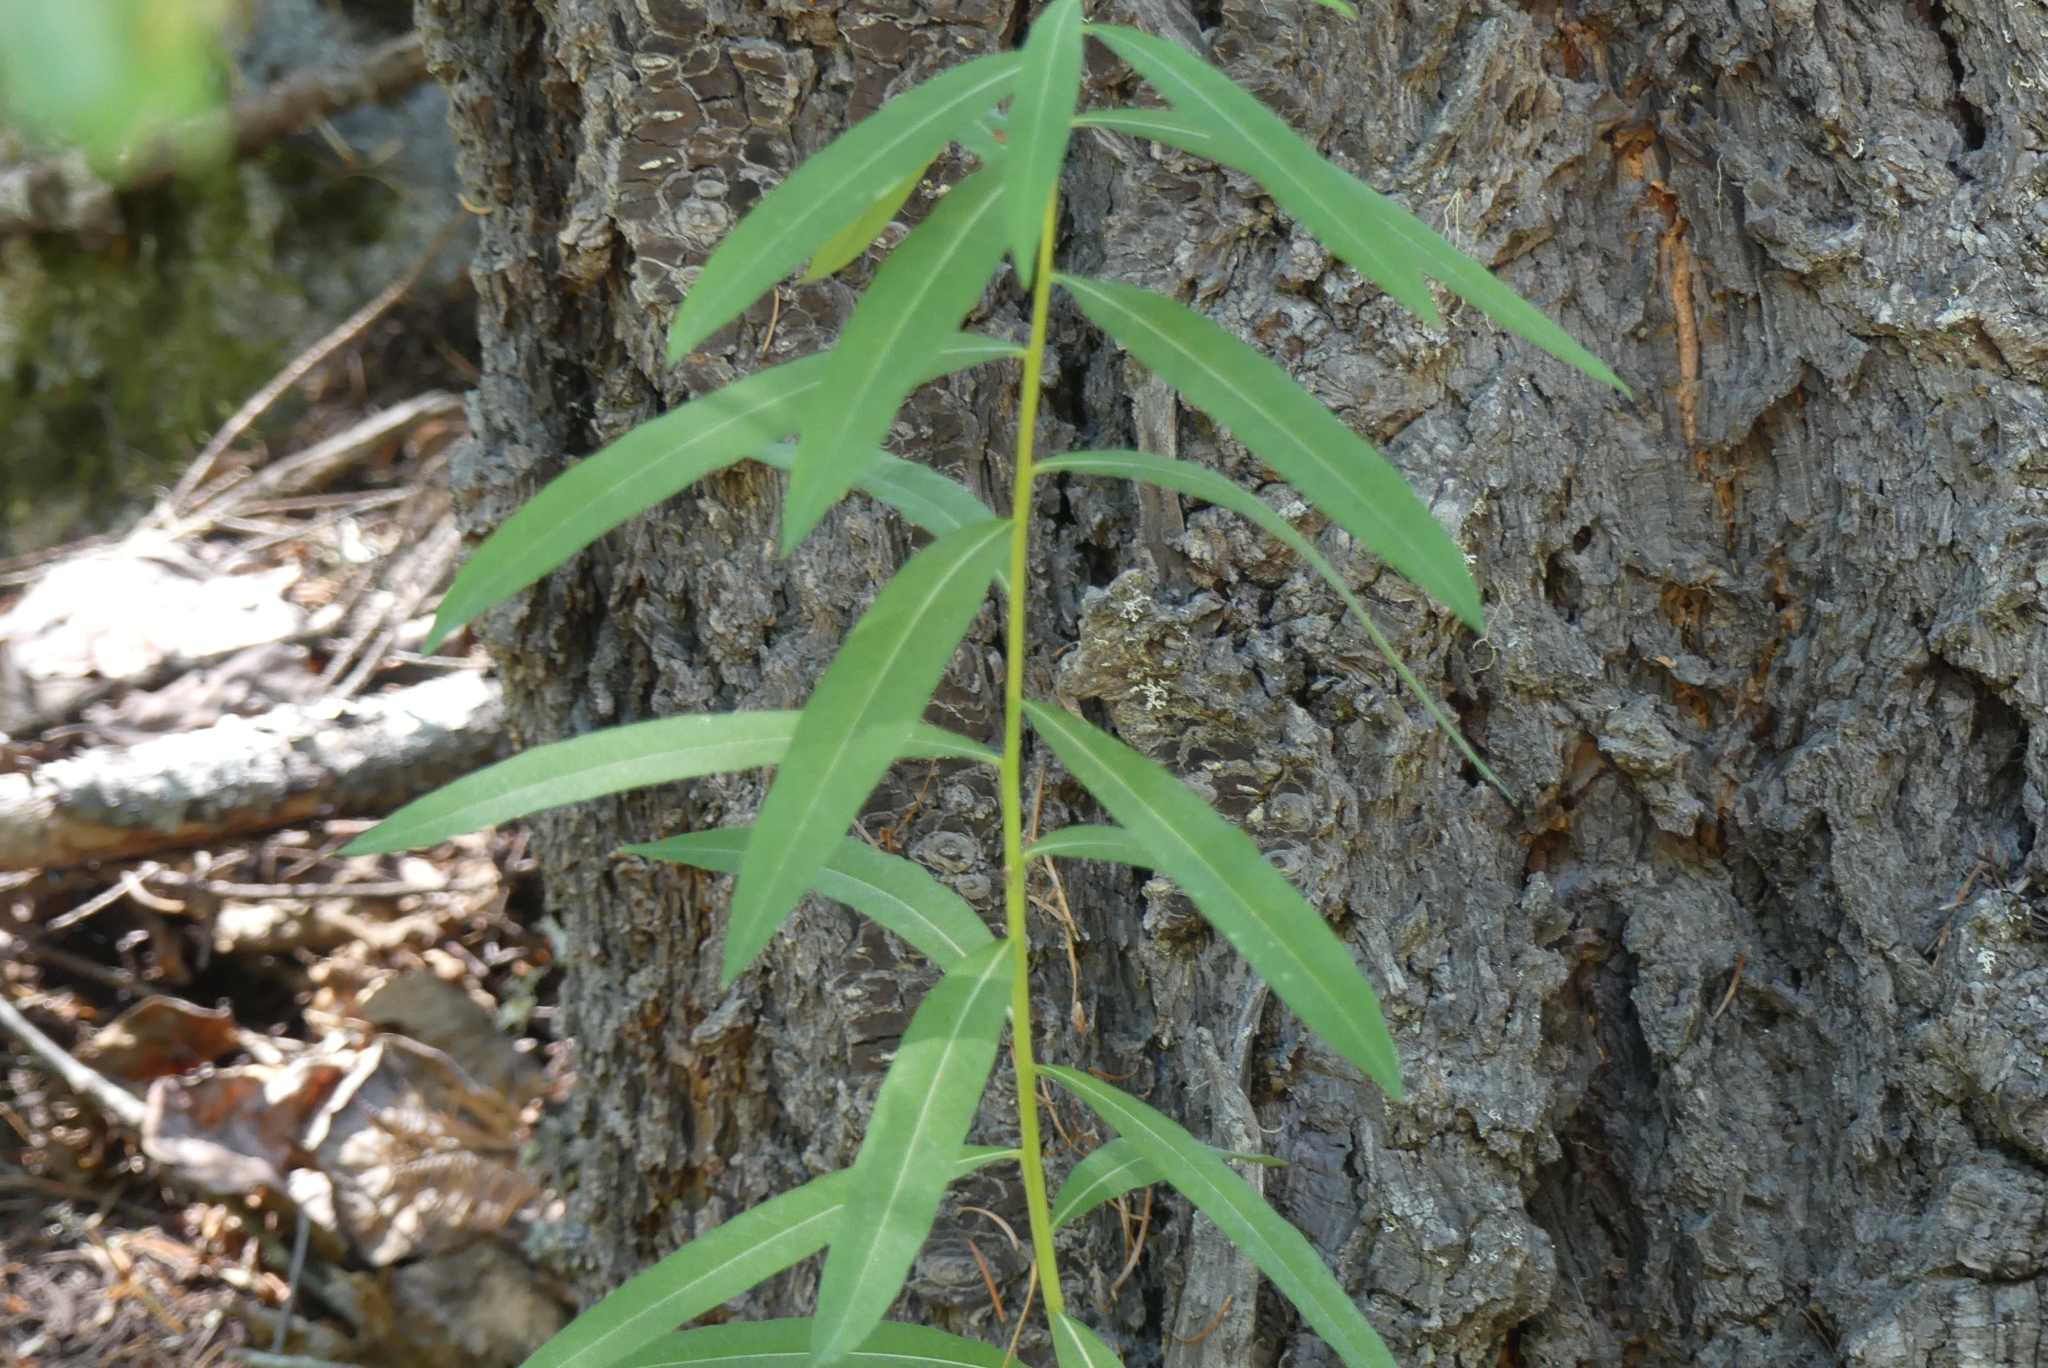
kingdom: Plantae
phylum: Tracheophyta
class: Magnoliopsida
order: Myrtales
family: Onagraceae
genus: Chamaenerion
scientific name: Chamaenerion angustifolium
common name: Fireweed
